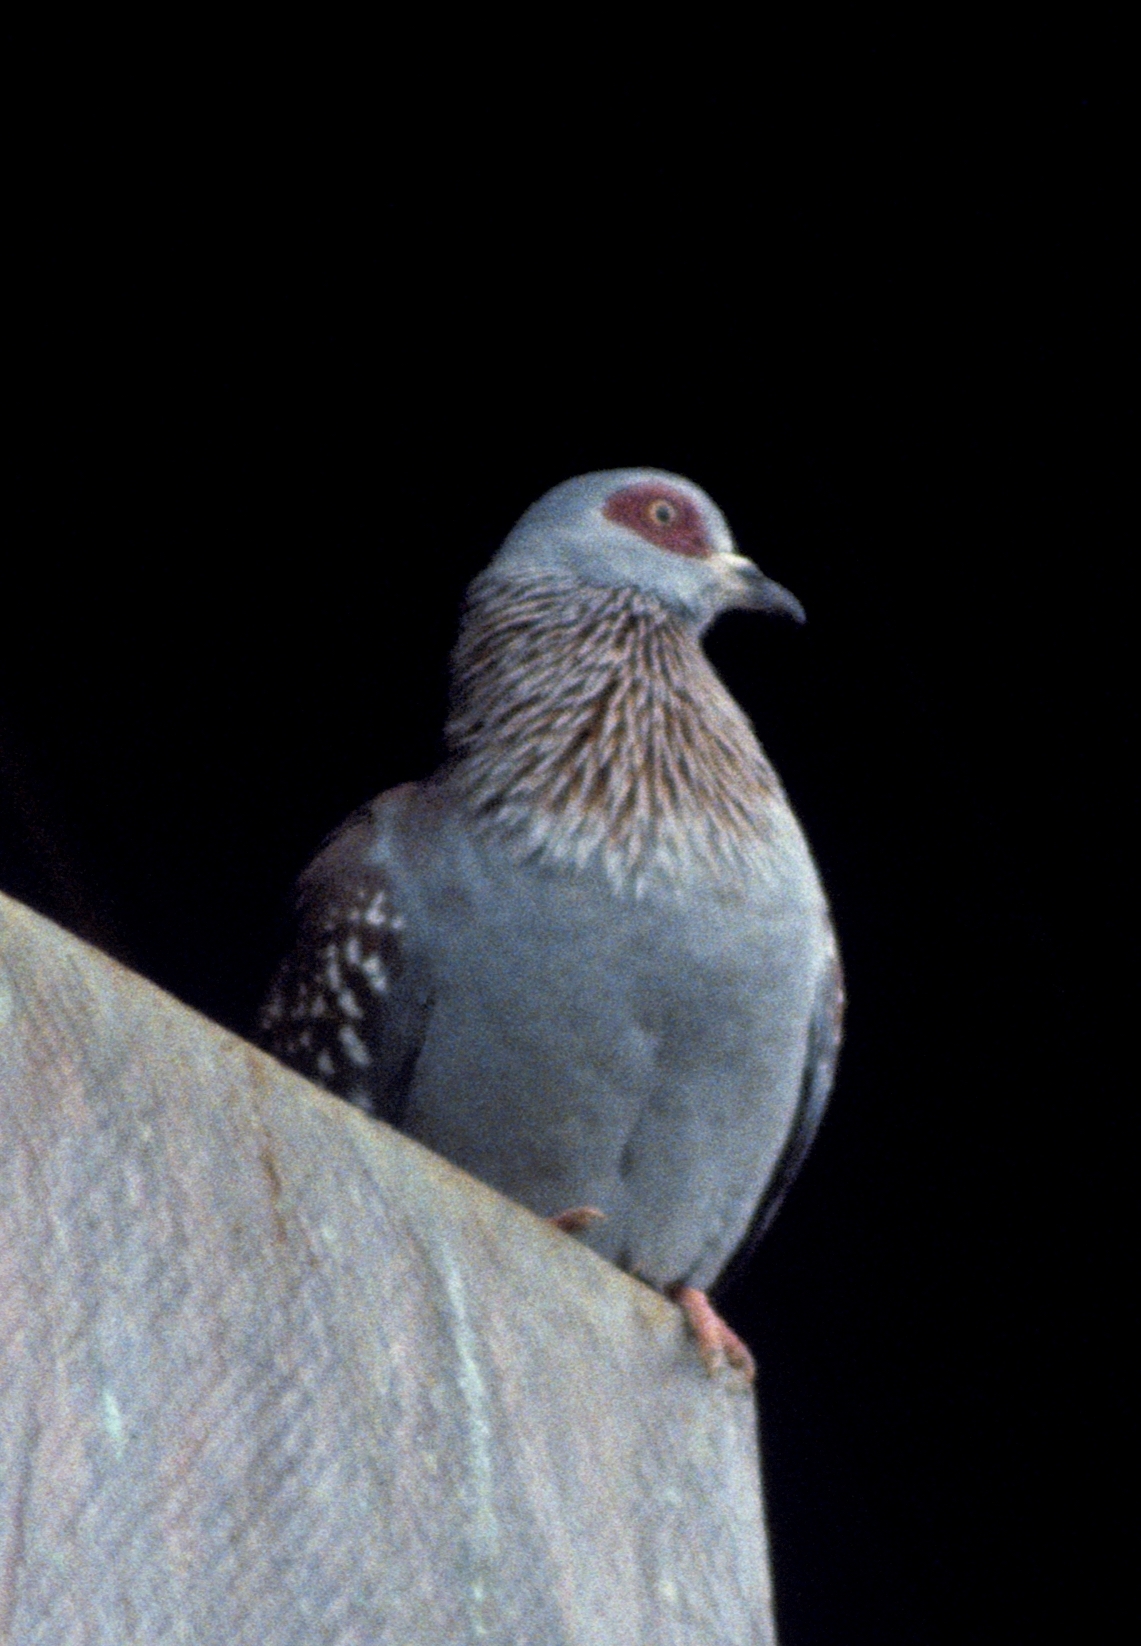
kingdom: Animalia
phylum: Chordata
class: Aves
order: Columbiformes
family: Columbidae
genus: Columba
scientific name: Columba guinea
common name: Speckled pigeon
